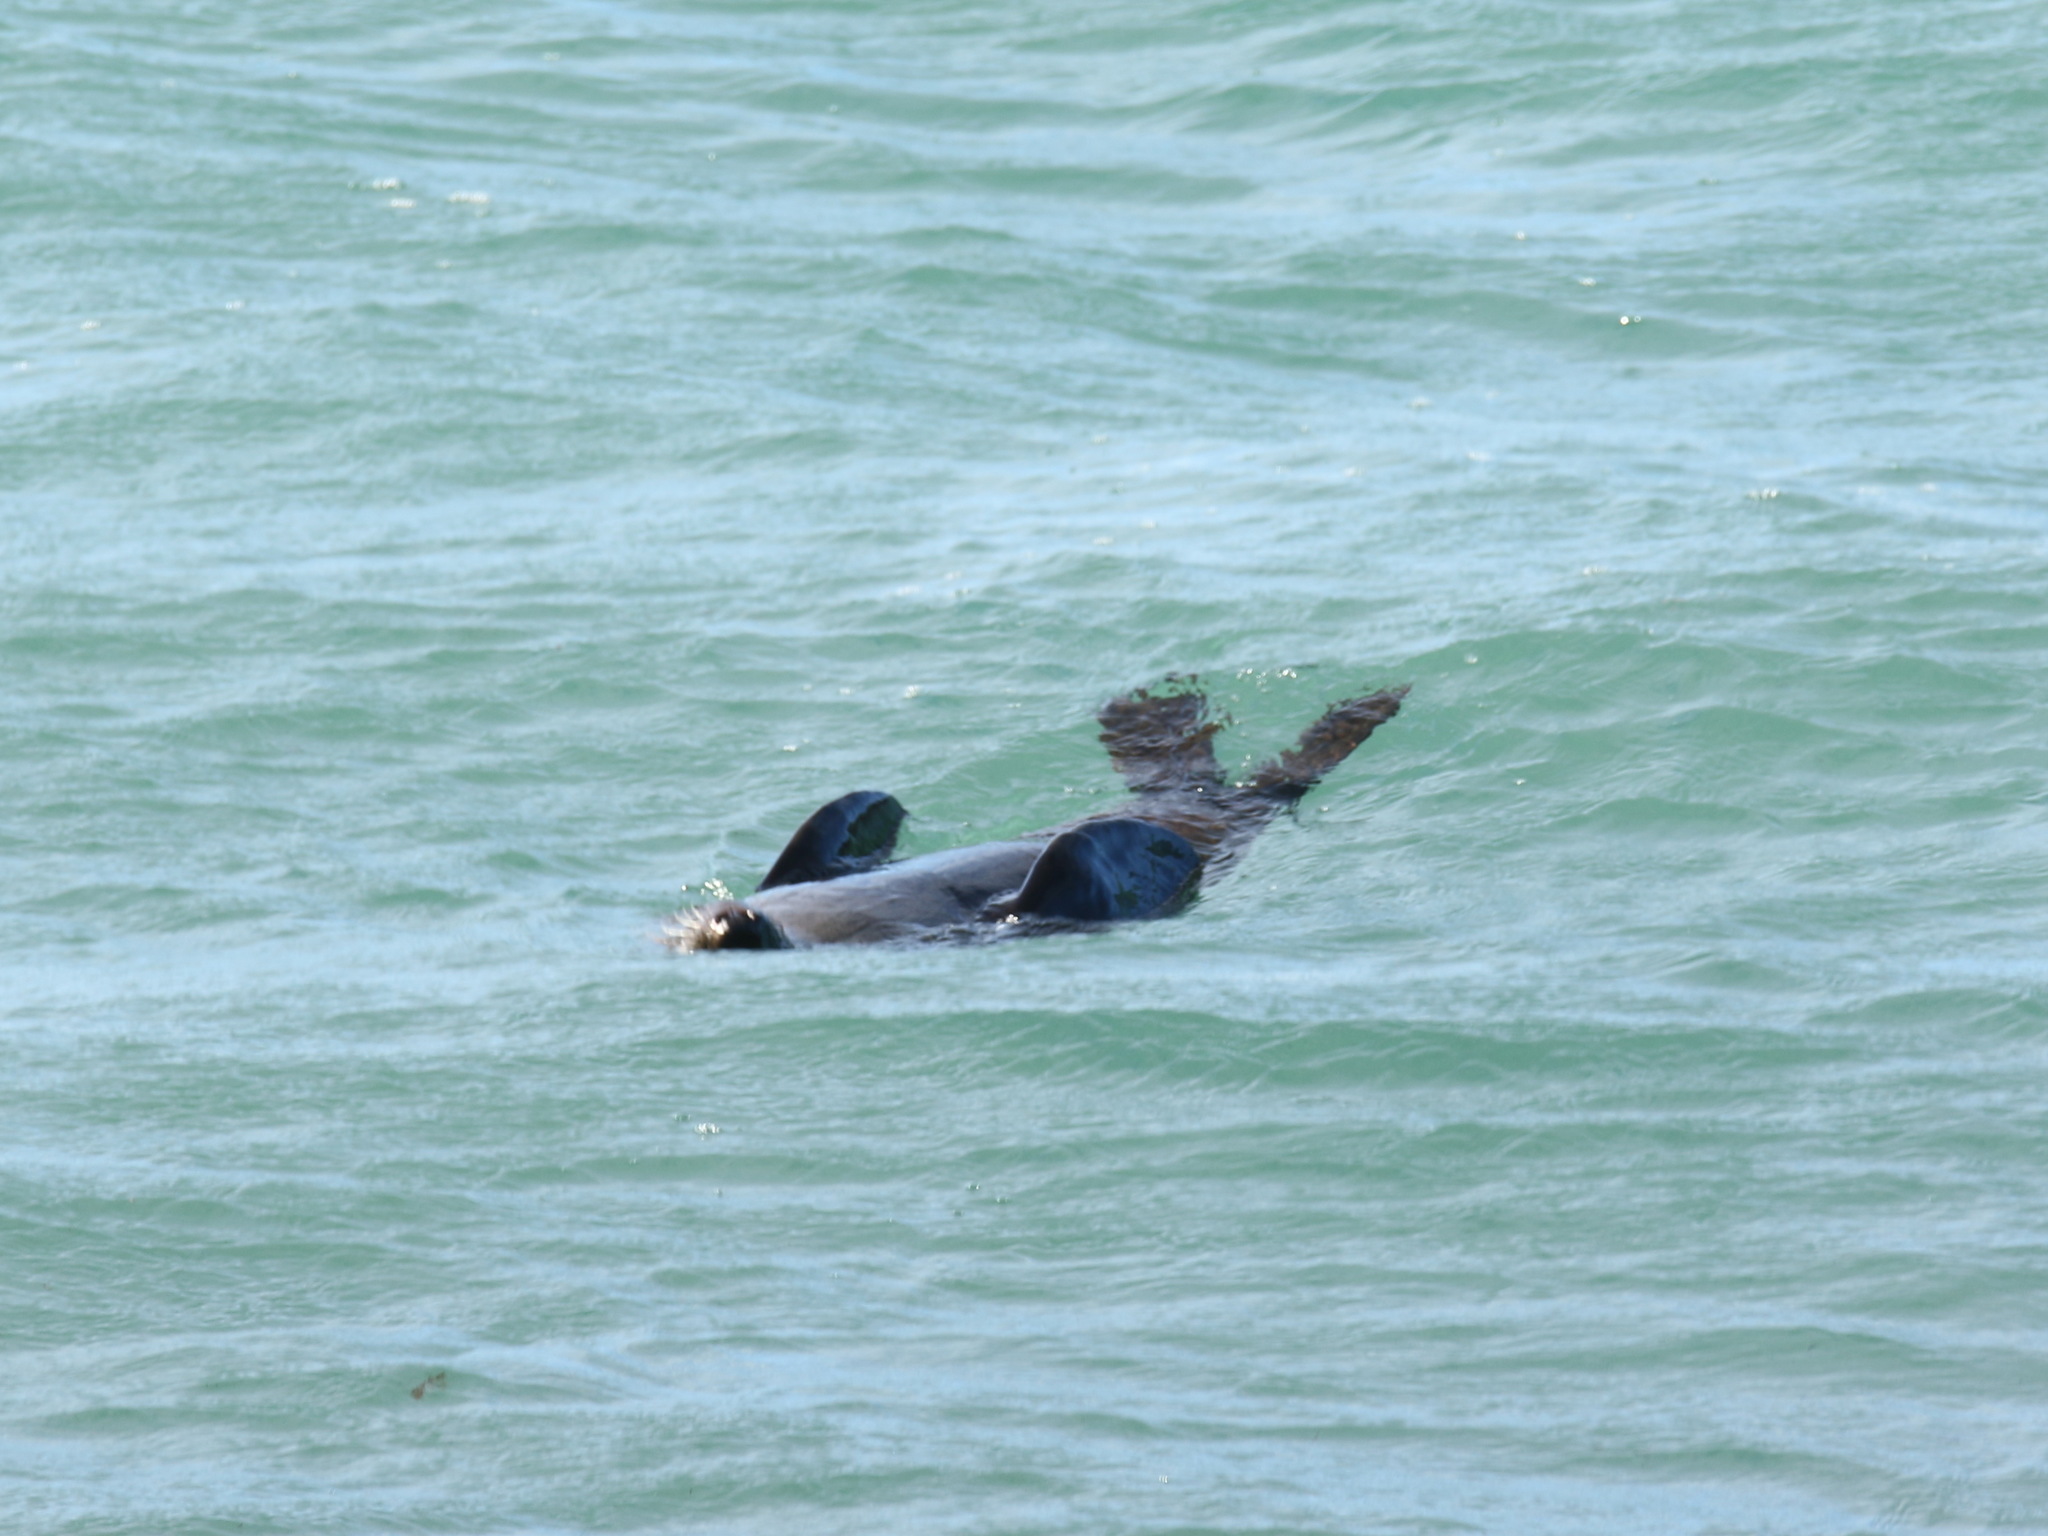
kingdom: Animalia
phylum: Chordata
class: Mammalia
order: Carnivora
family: Otariidae
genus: Arctocephalus
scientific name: Arctocephalus forsteri
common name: New zealand fur seal
